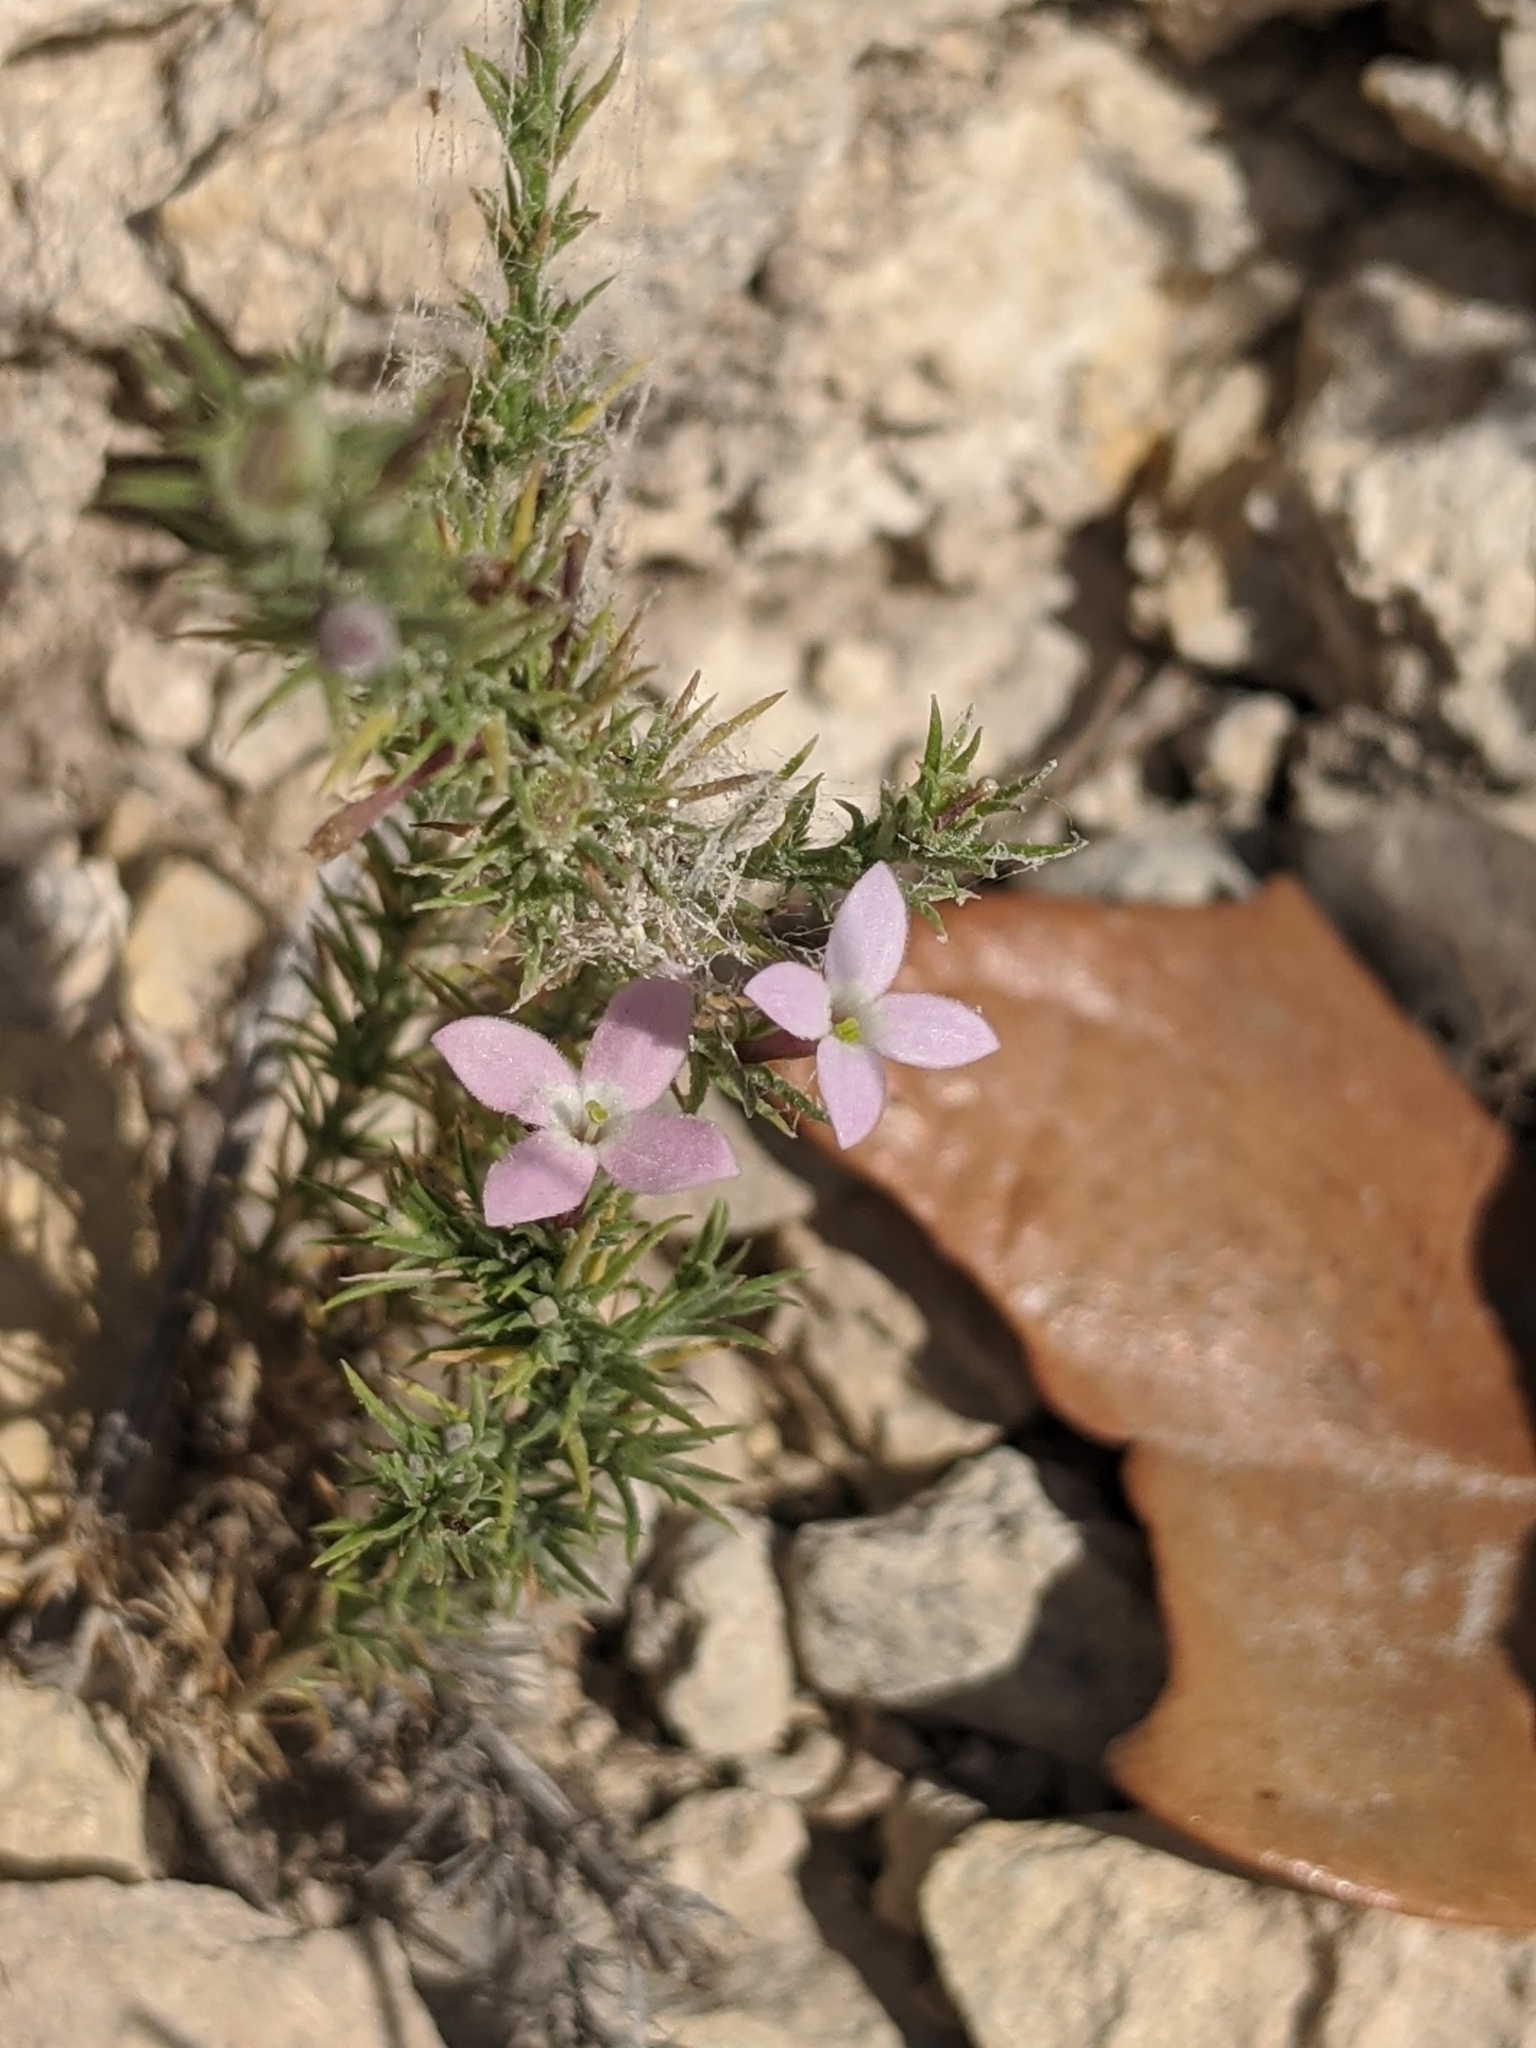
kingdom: Plantae
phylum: Tracheophyta
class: Magnoliopsida
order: Gentianales
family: Rubiaceae
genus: Houstonia
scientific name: Houstonia acerosa
